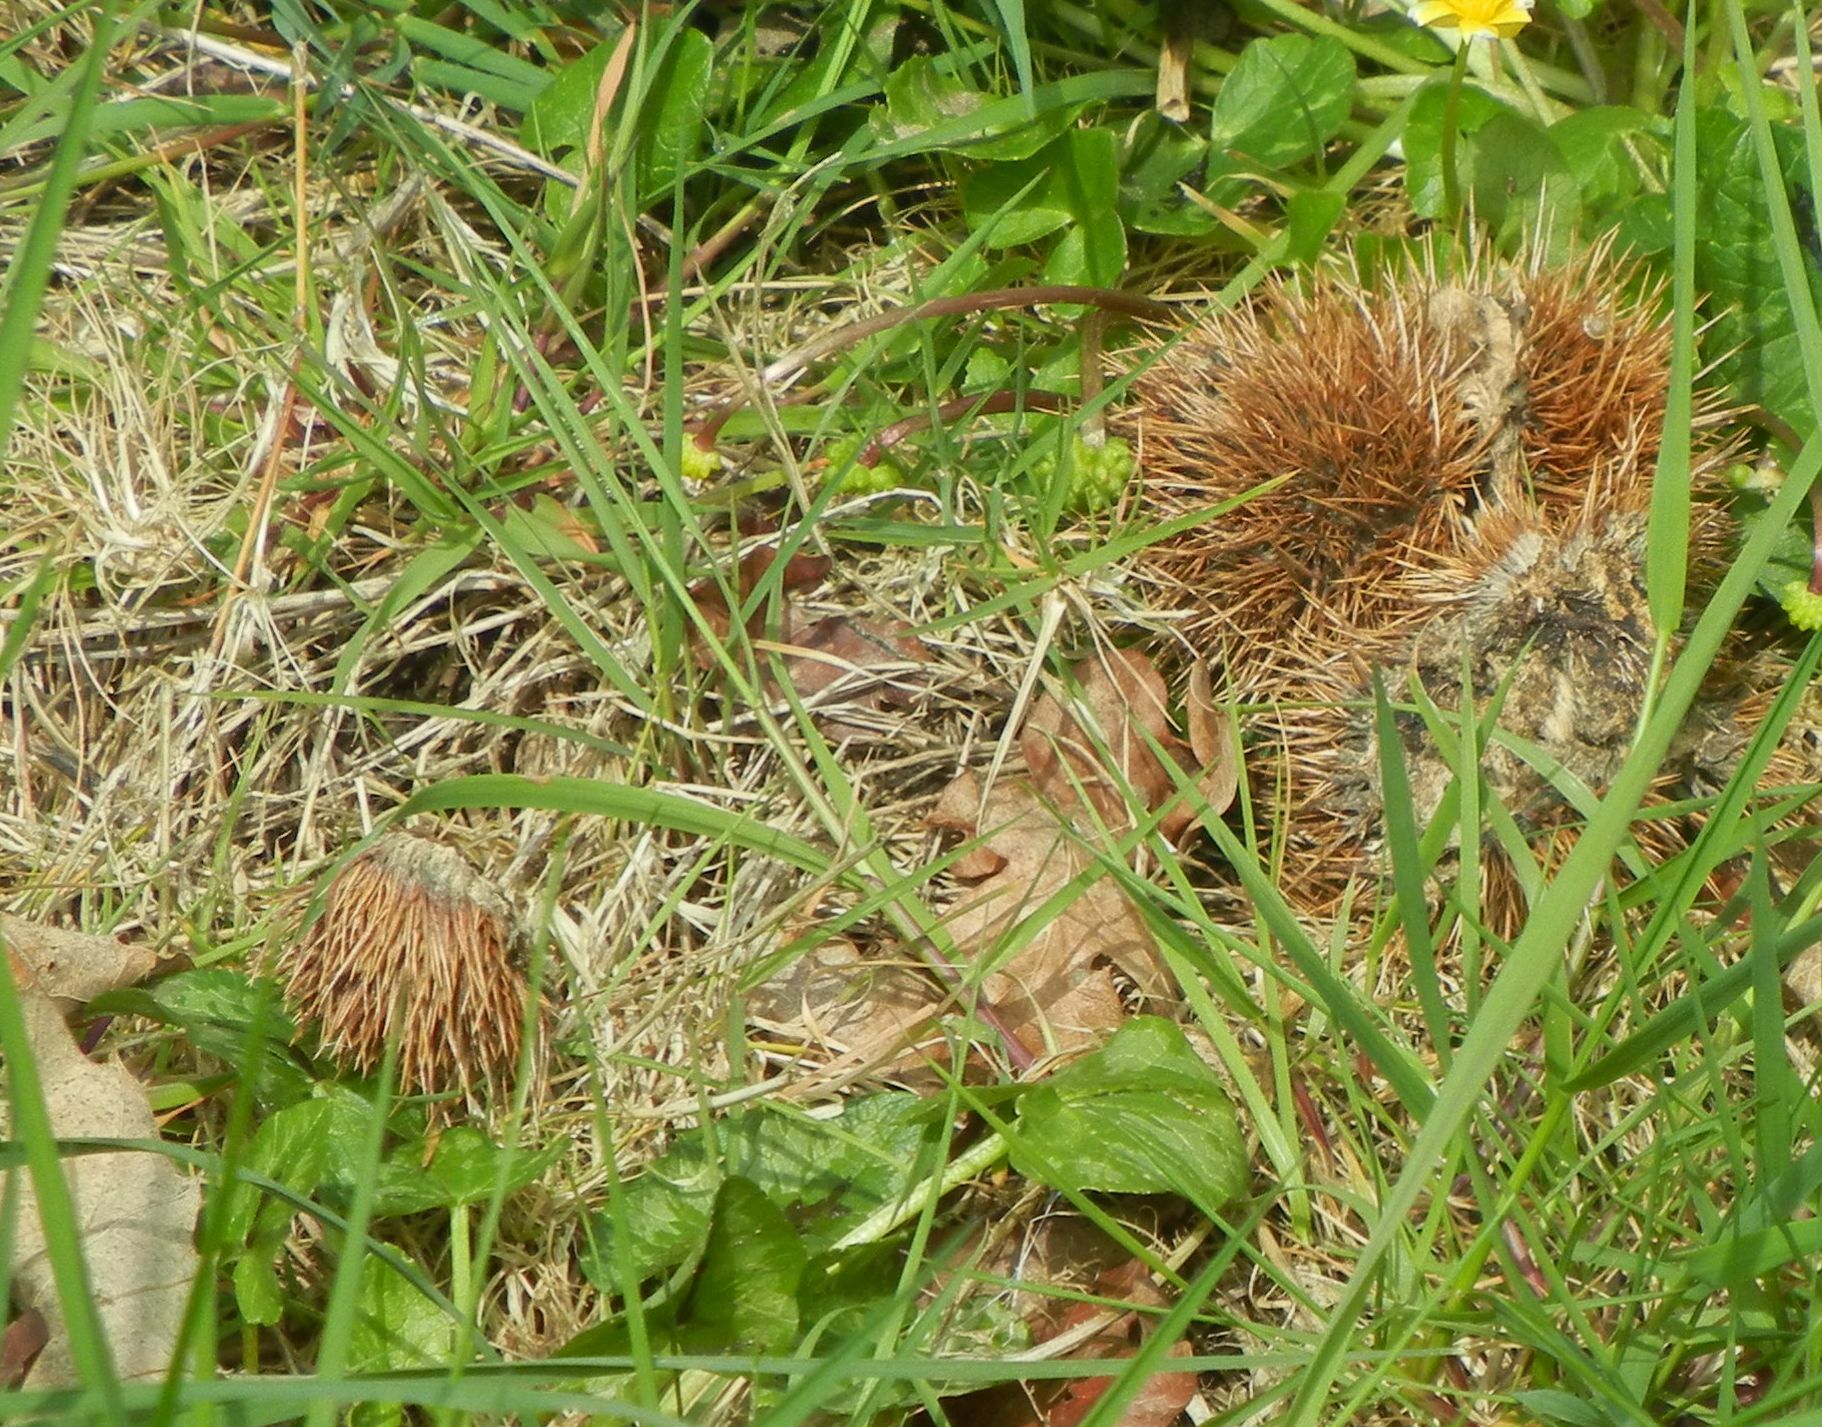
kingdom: Plantae
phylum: Tracheophyta
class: Magnoliopsida
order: Fagales
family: Fagaceae
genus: Castanea
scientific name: Castanea sativa
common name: Sweet chestnut
